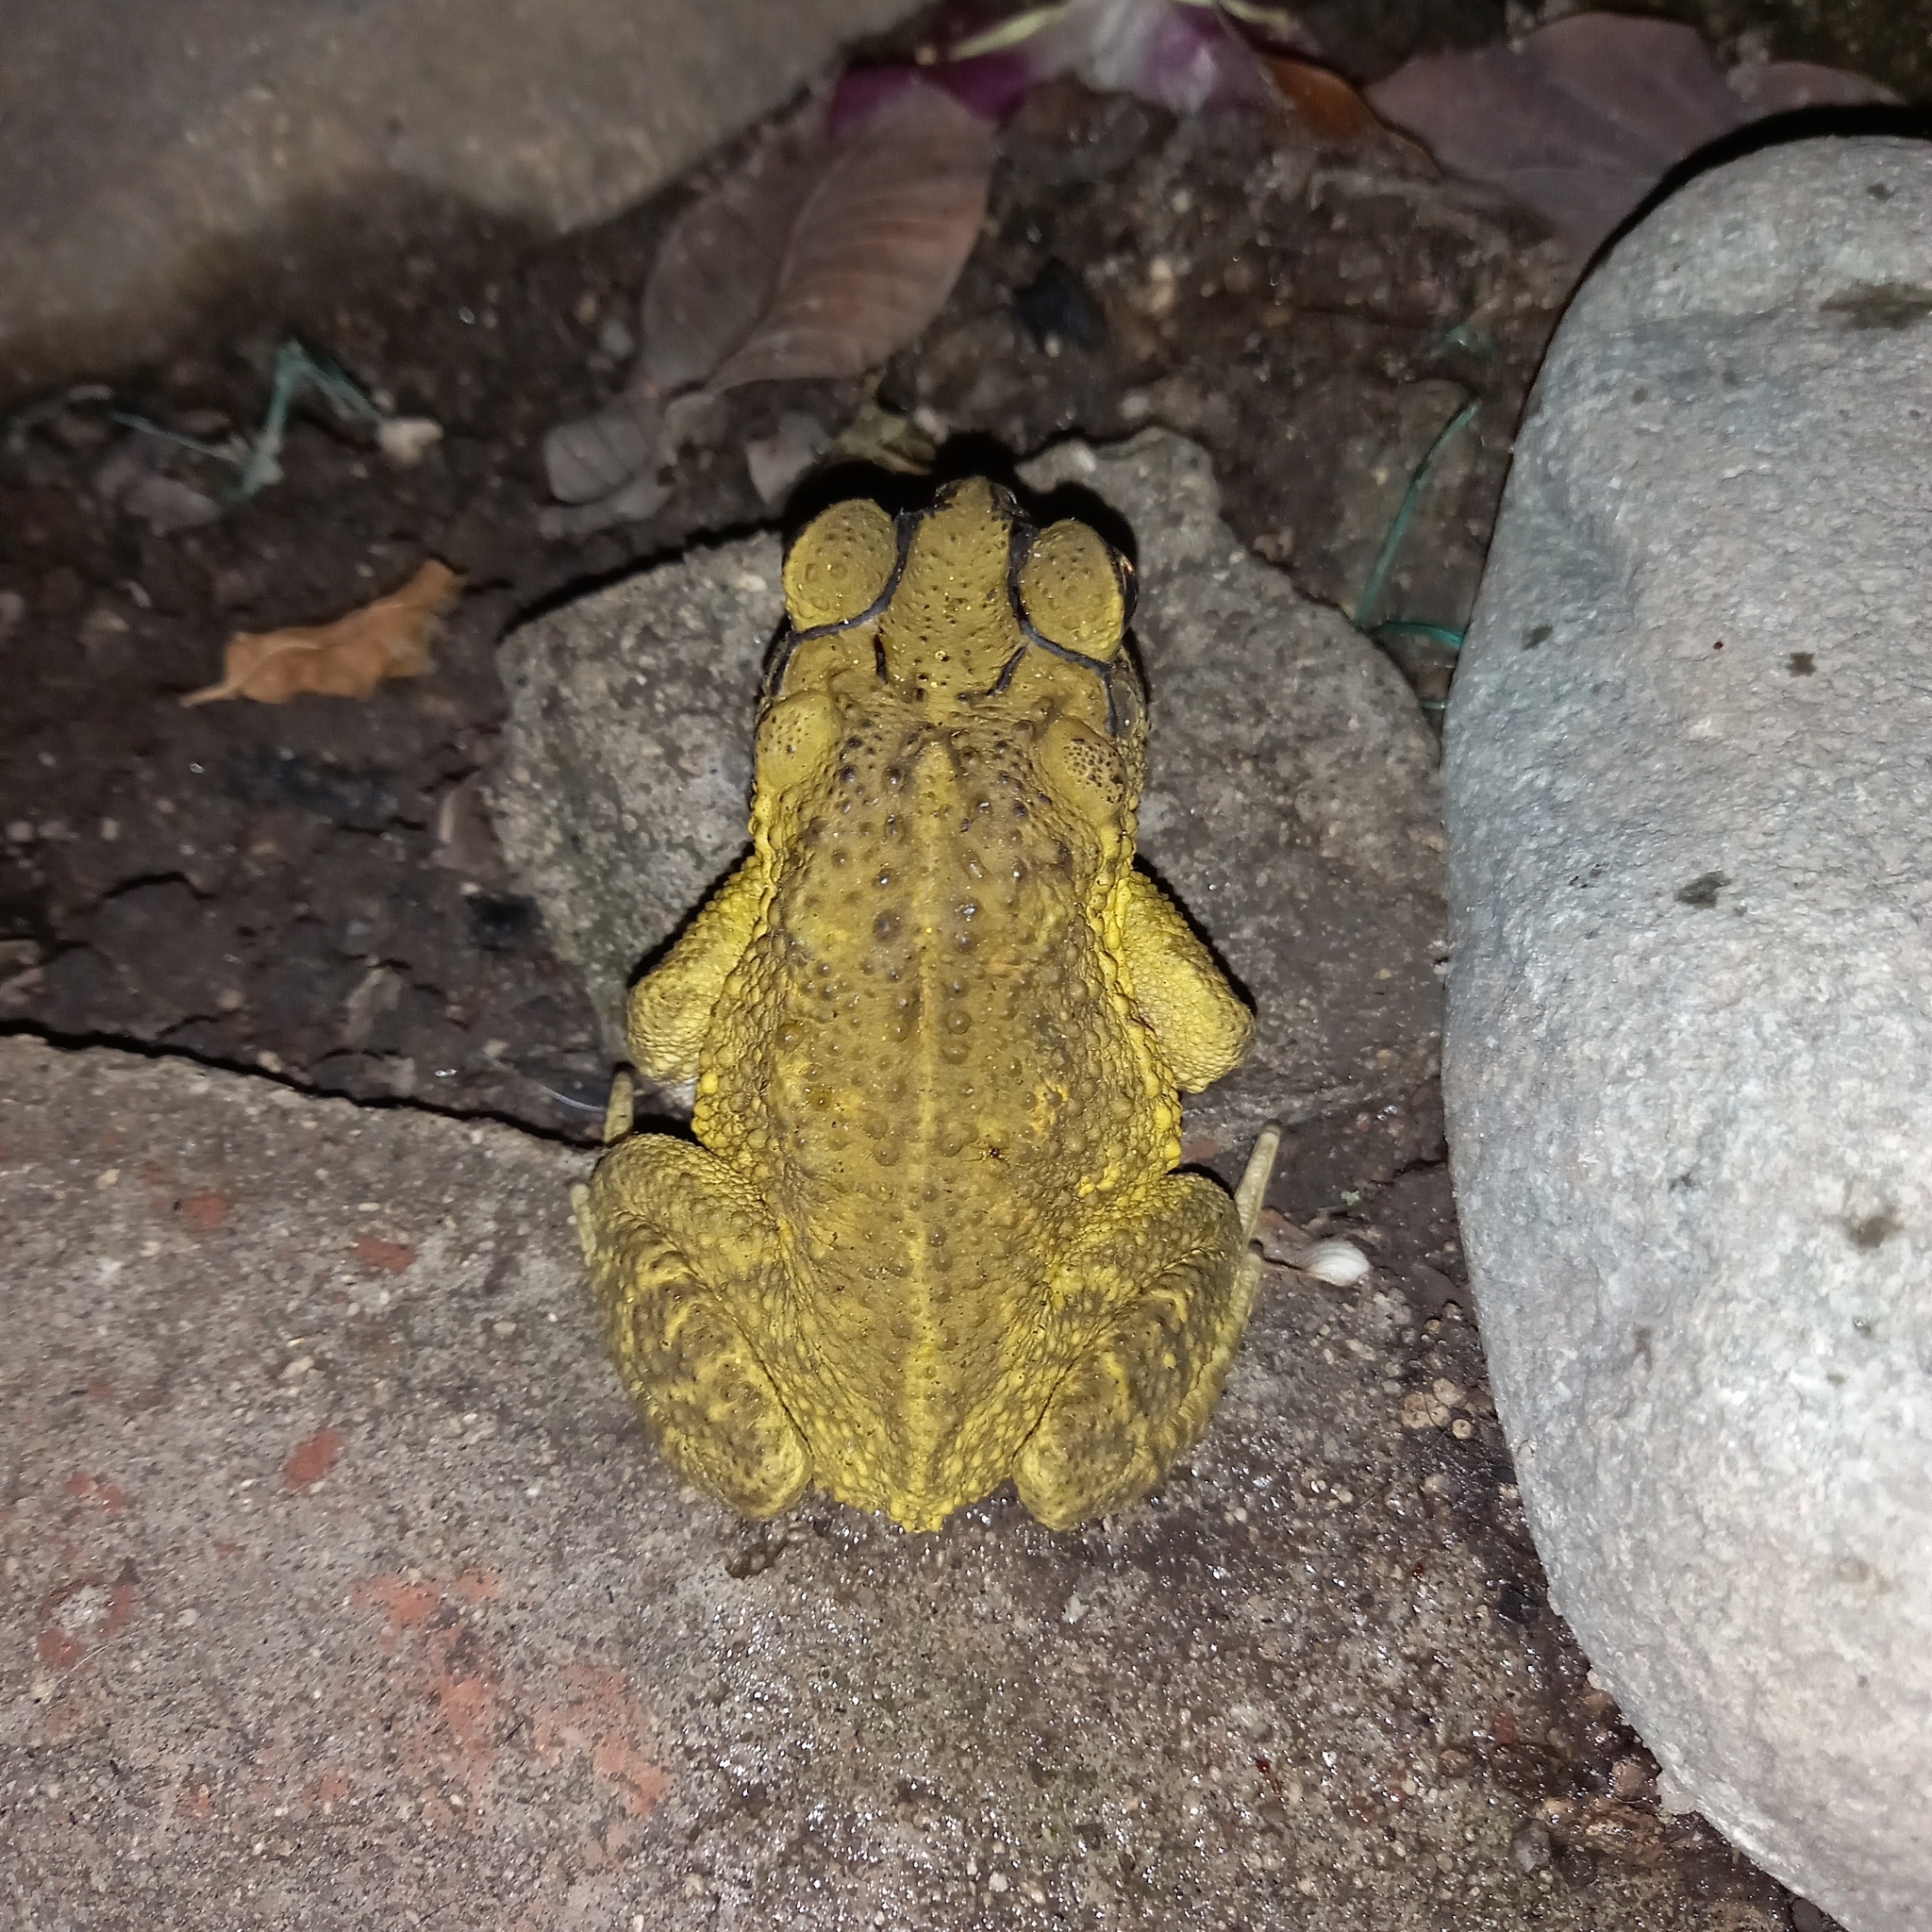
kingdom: Animalia
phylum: Chordata
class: Amphibia
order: Anura
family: Bufonidae
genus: Incilius
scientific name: Incilius luetkenii
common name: Yellow toad
